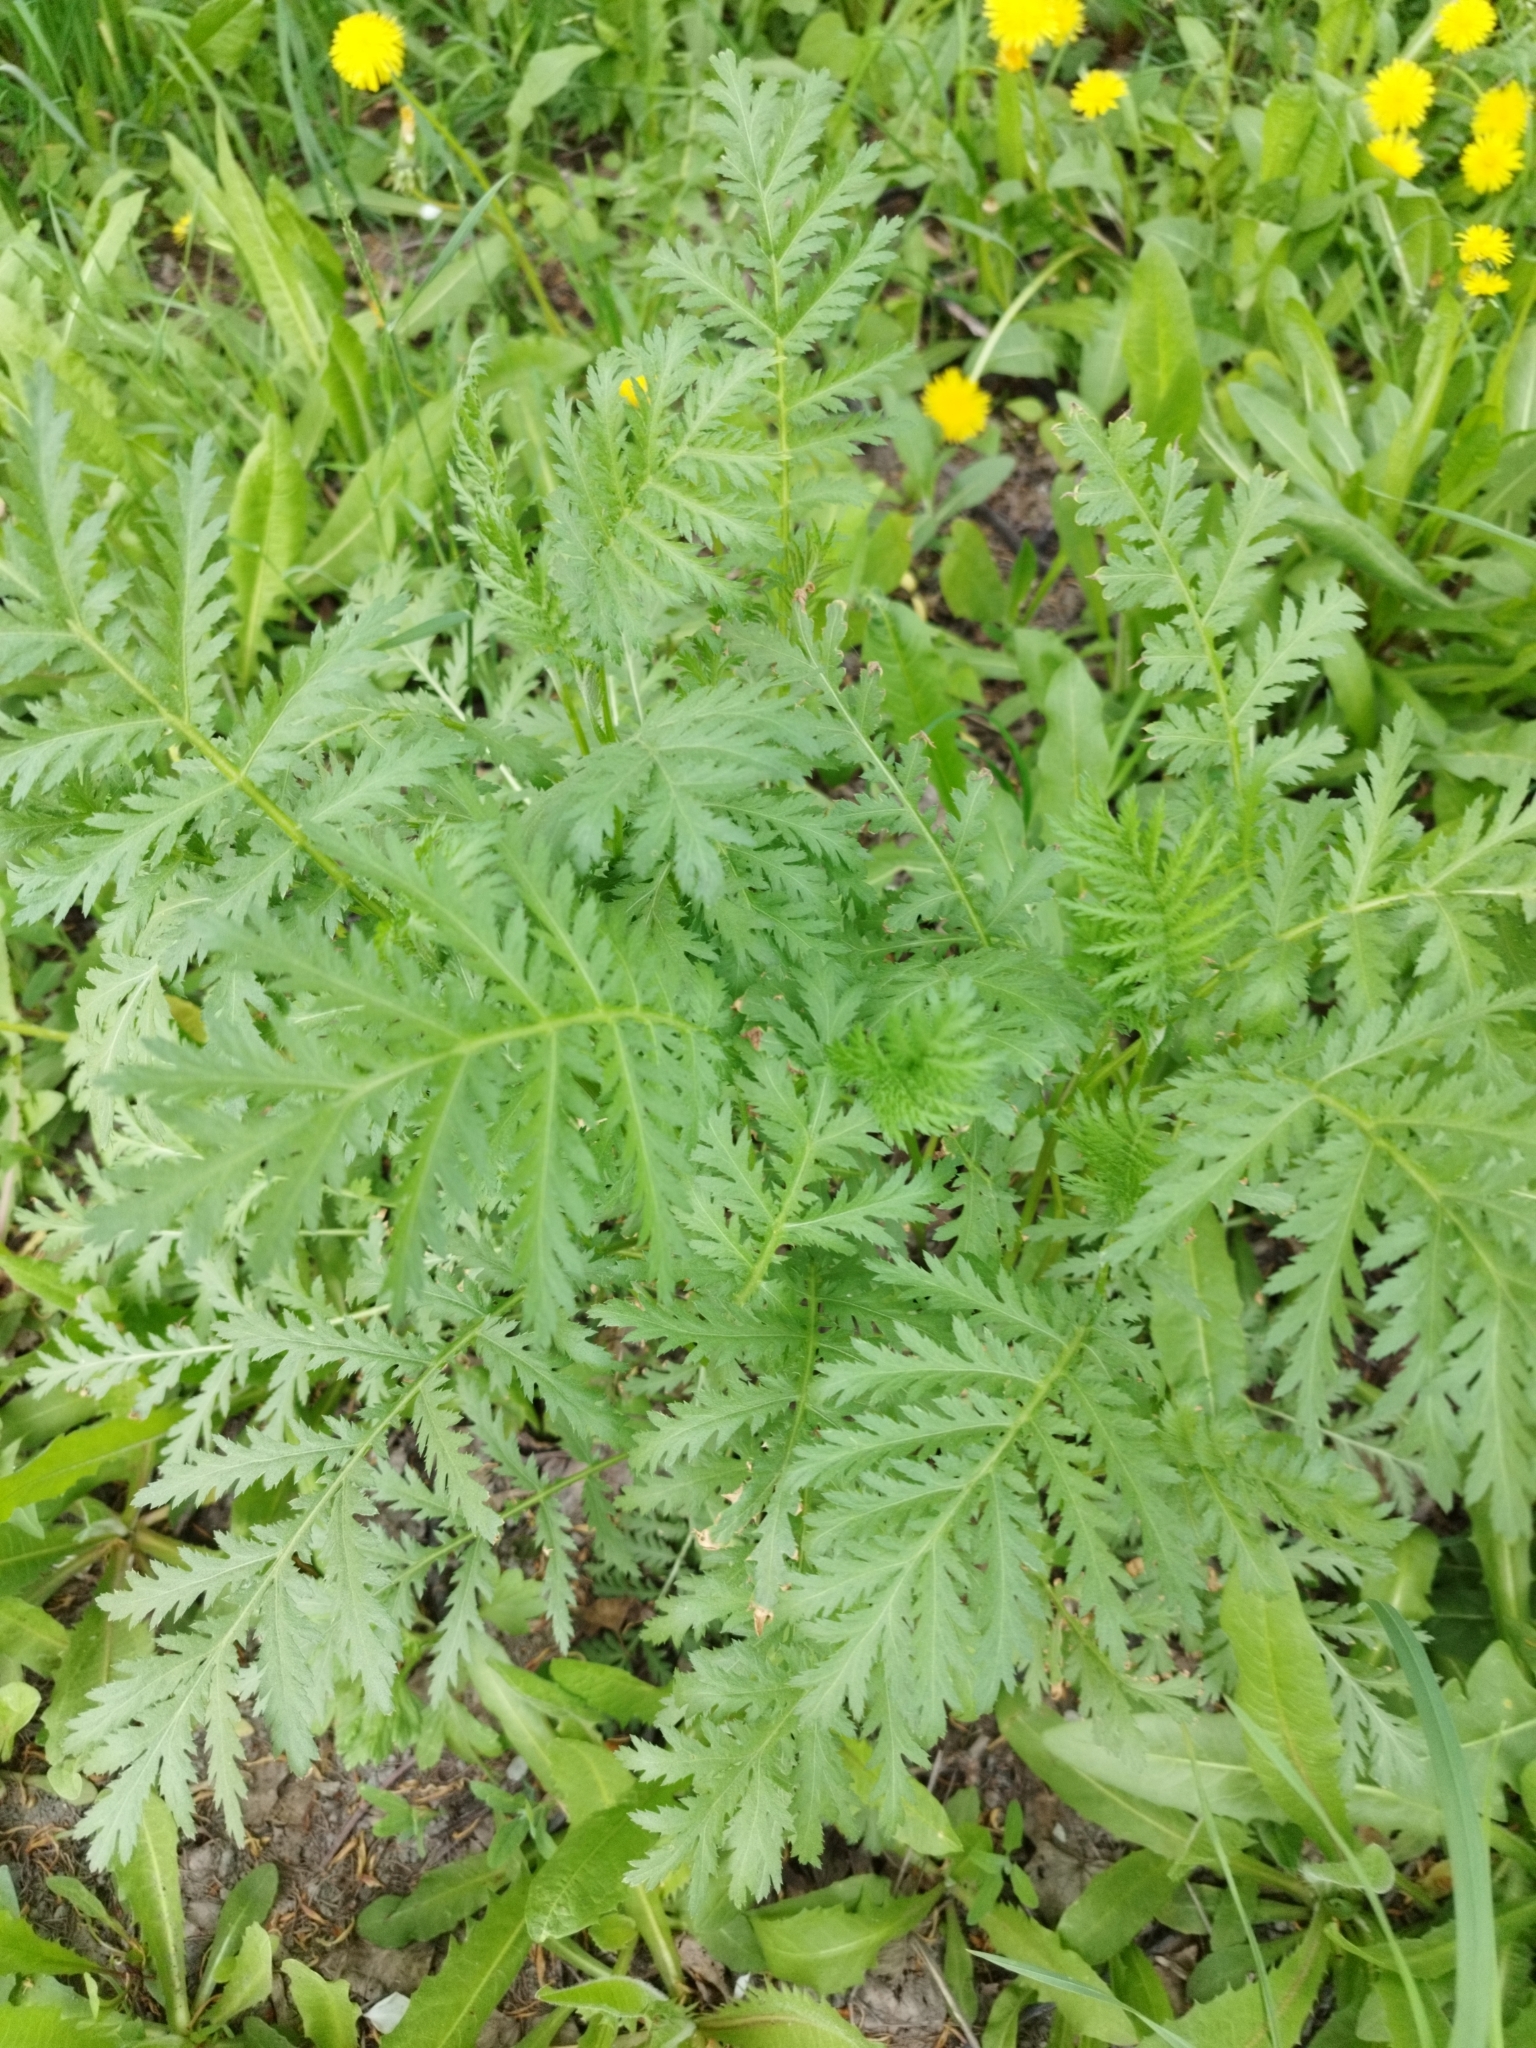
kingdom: Plantae
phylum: Tracheophyta
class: Magnoliopsida
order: Asterales
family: Asteraceae
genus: Tanacetum
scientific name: Tanacetum vulgare
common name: Common tansy
